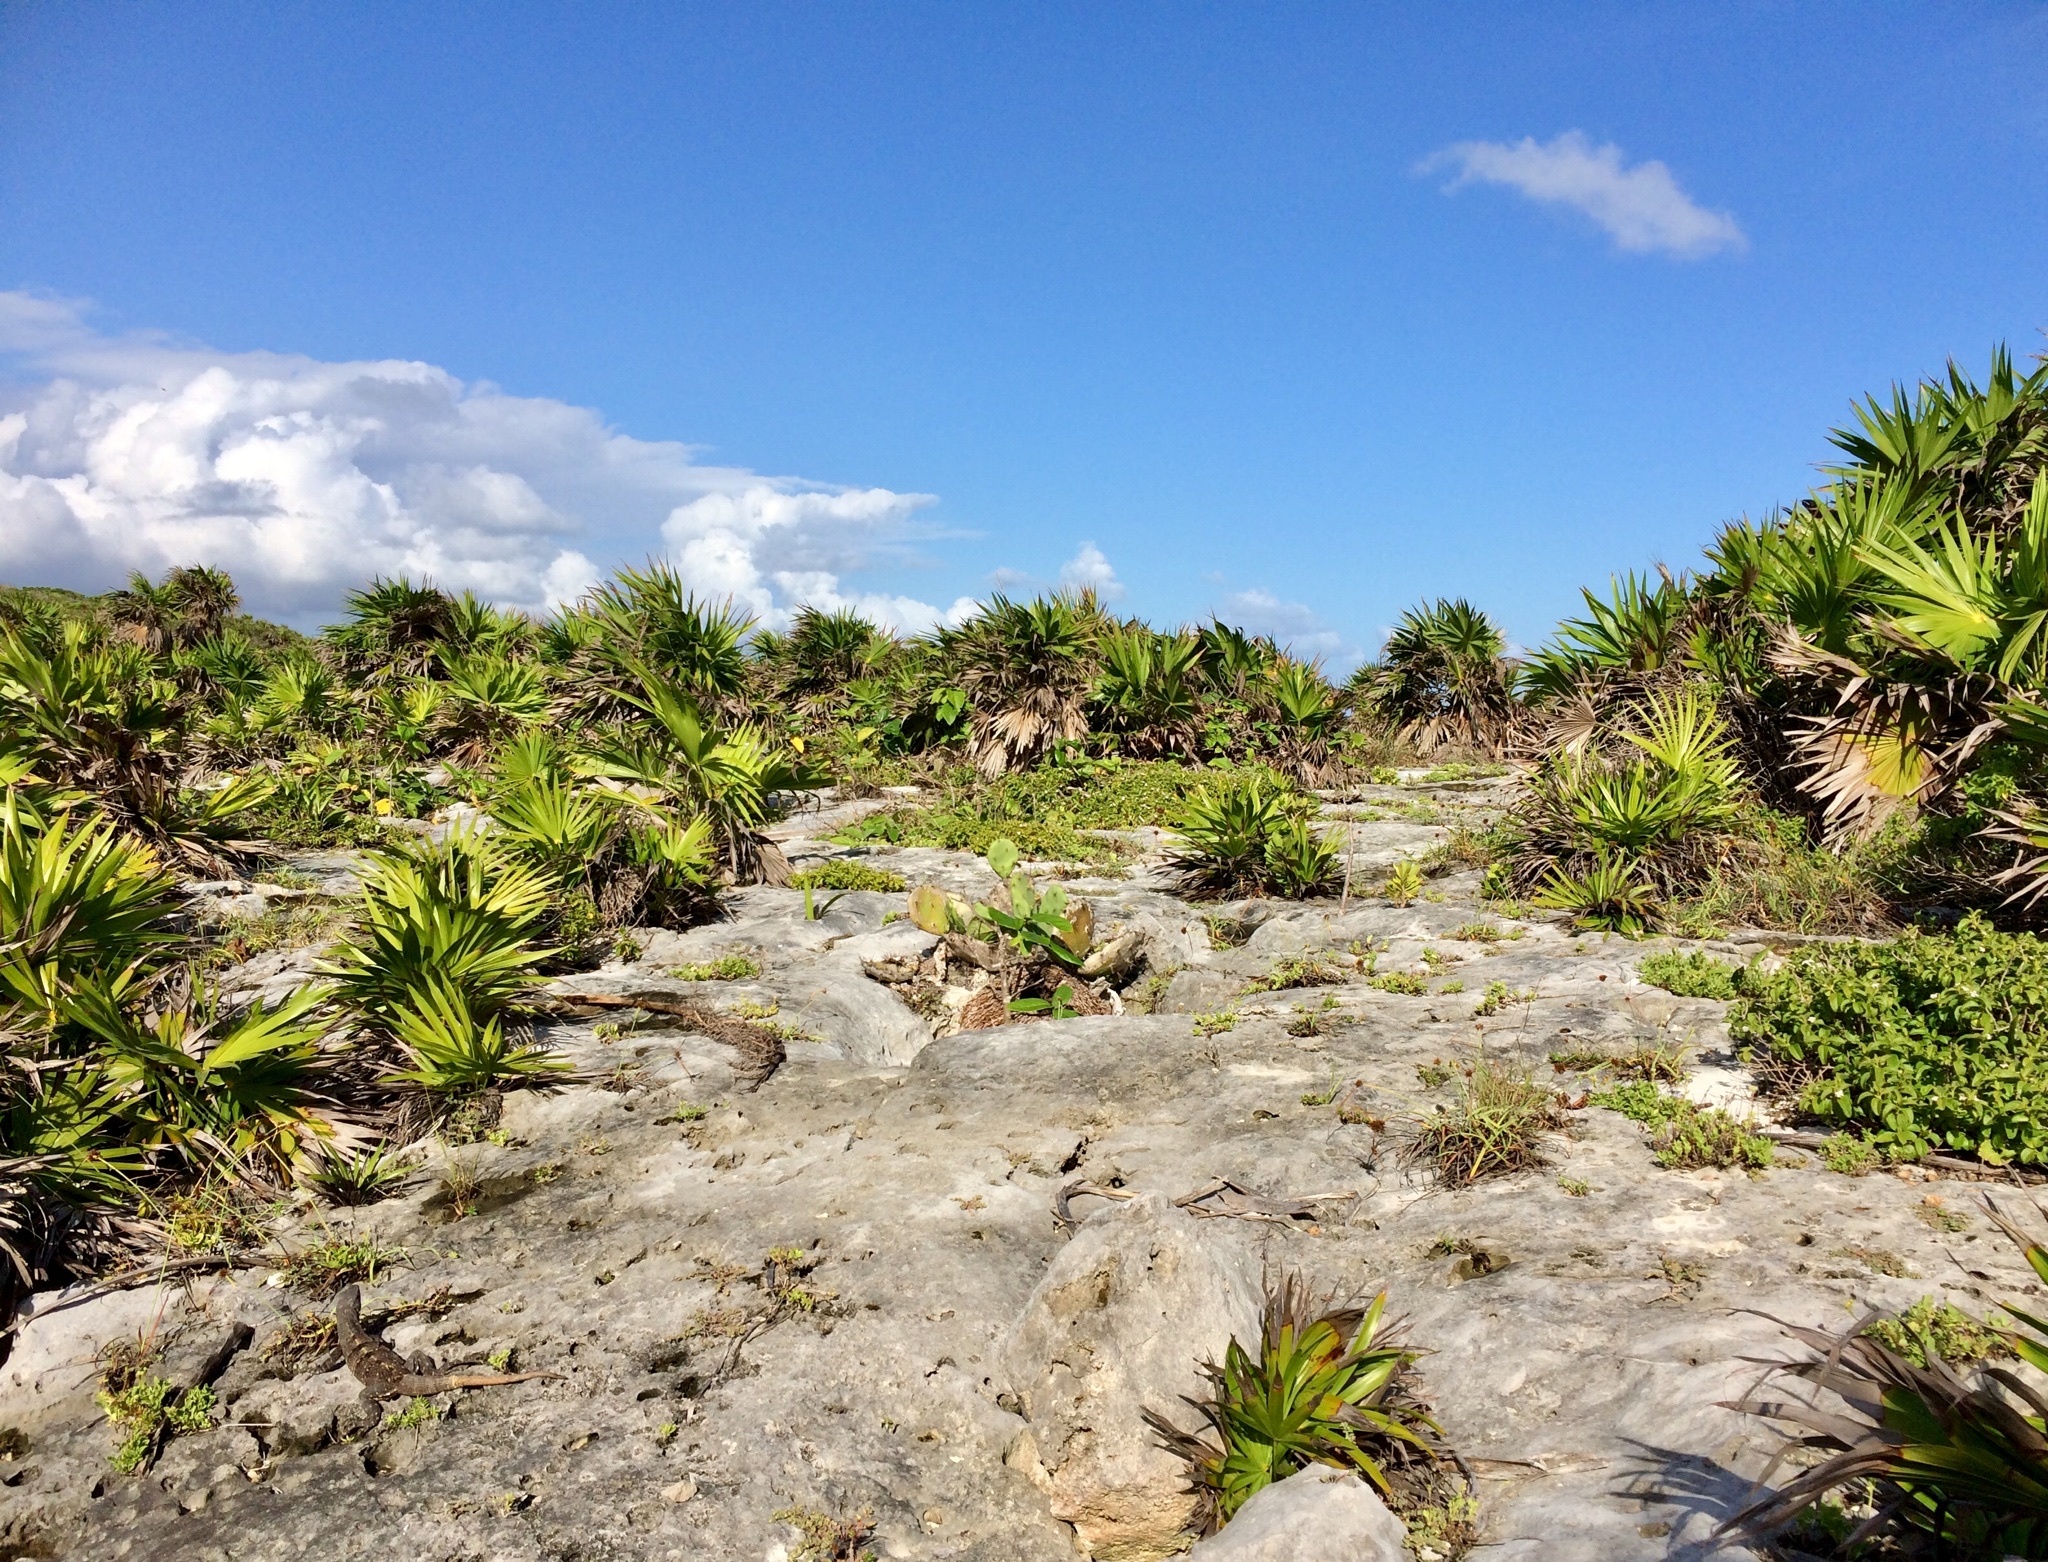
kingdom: Plantae
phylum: Tracheophyta
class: Liliopsida
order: Arecales
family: Arecaceae
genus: Thrinax
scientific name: Thrinax radiata
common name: Florida thatch
